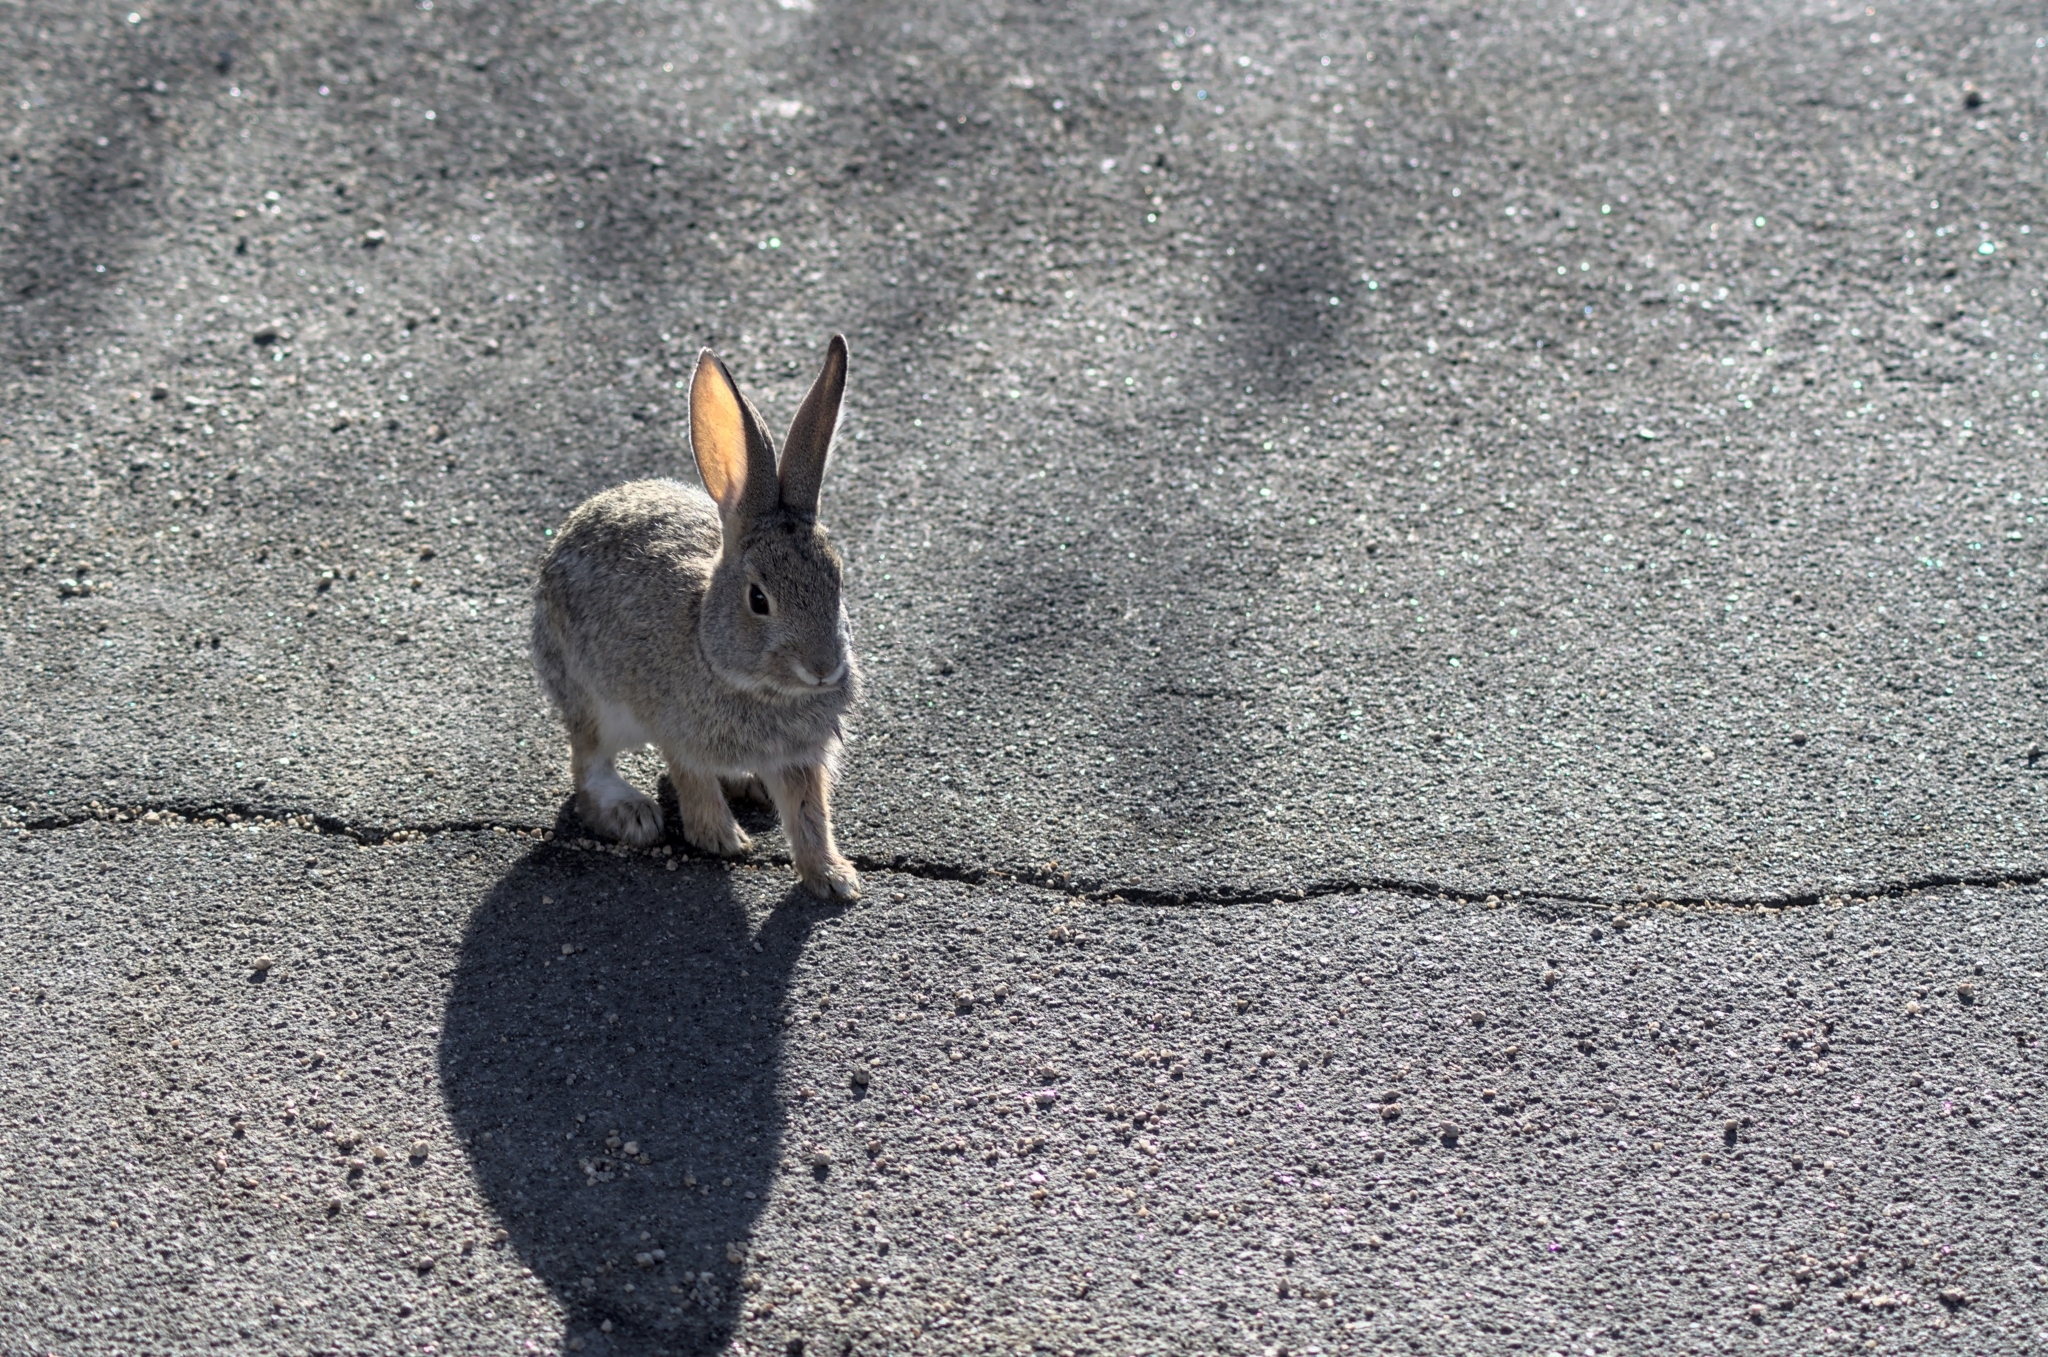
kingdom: Animalia
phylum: Chordata
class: Mammalia
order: Lagomorpha
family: Leporidae
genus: Sylvilagus
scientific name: Sylvilagus audubonii
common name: Desert cottontail
